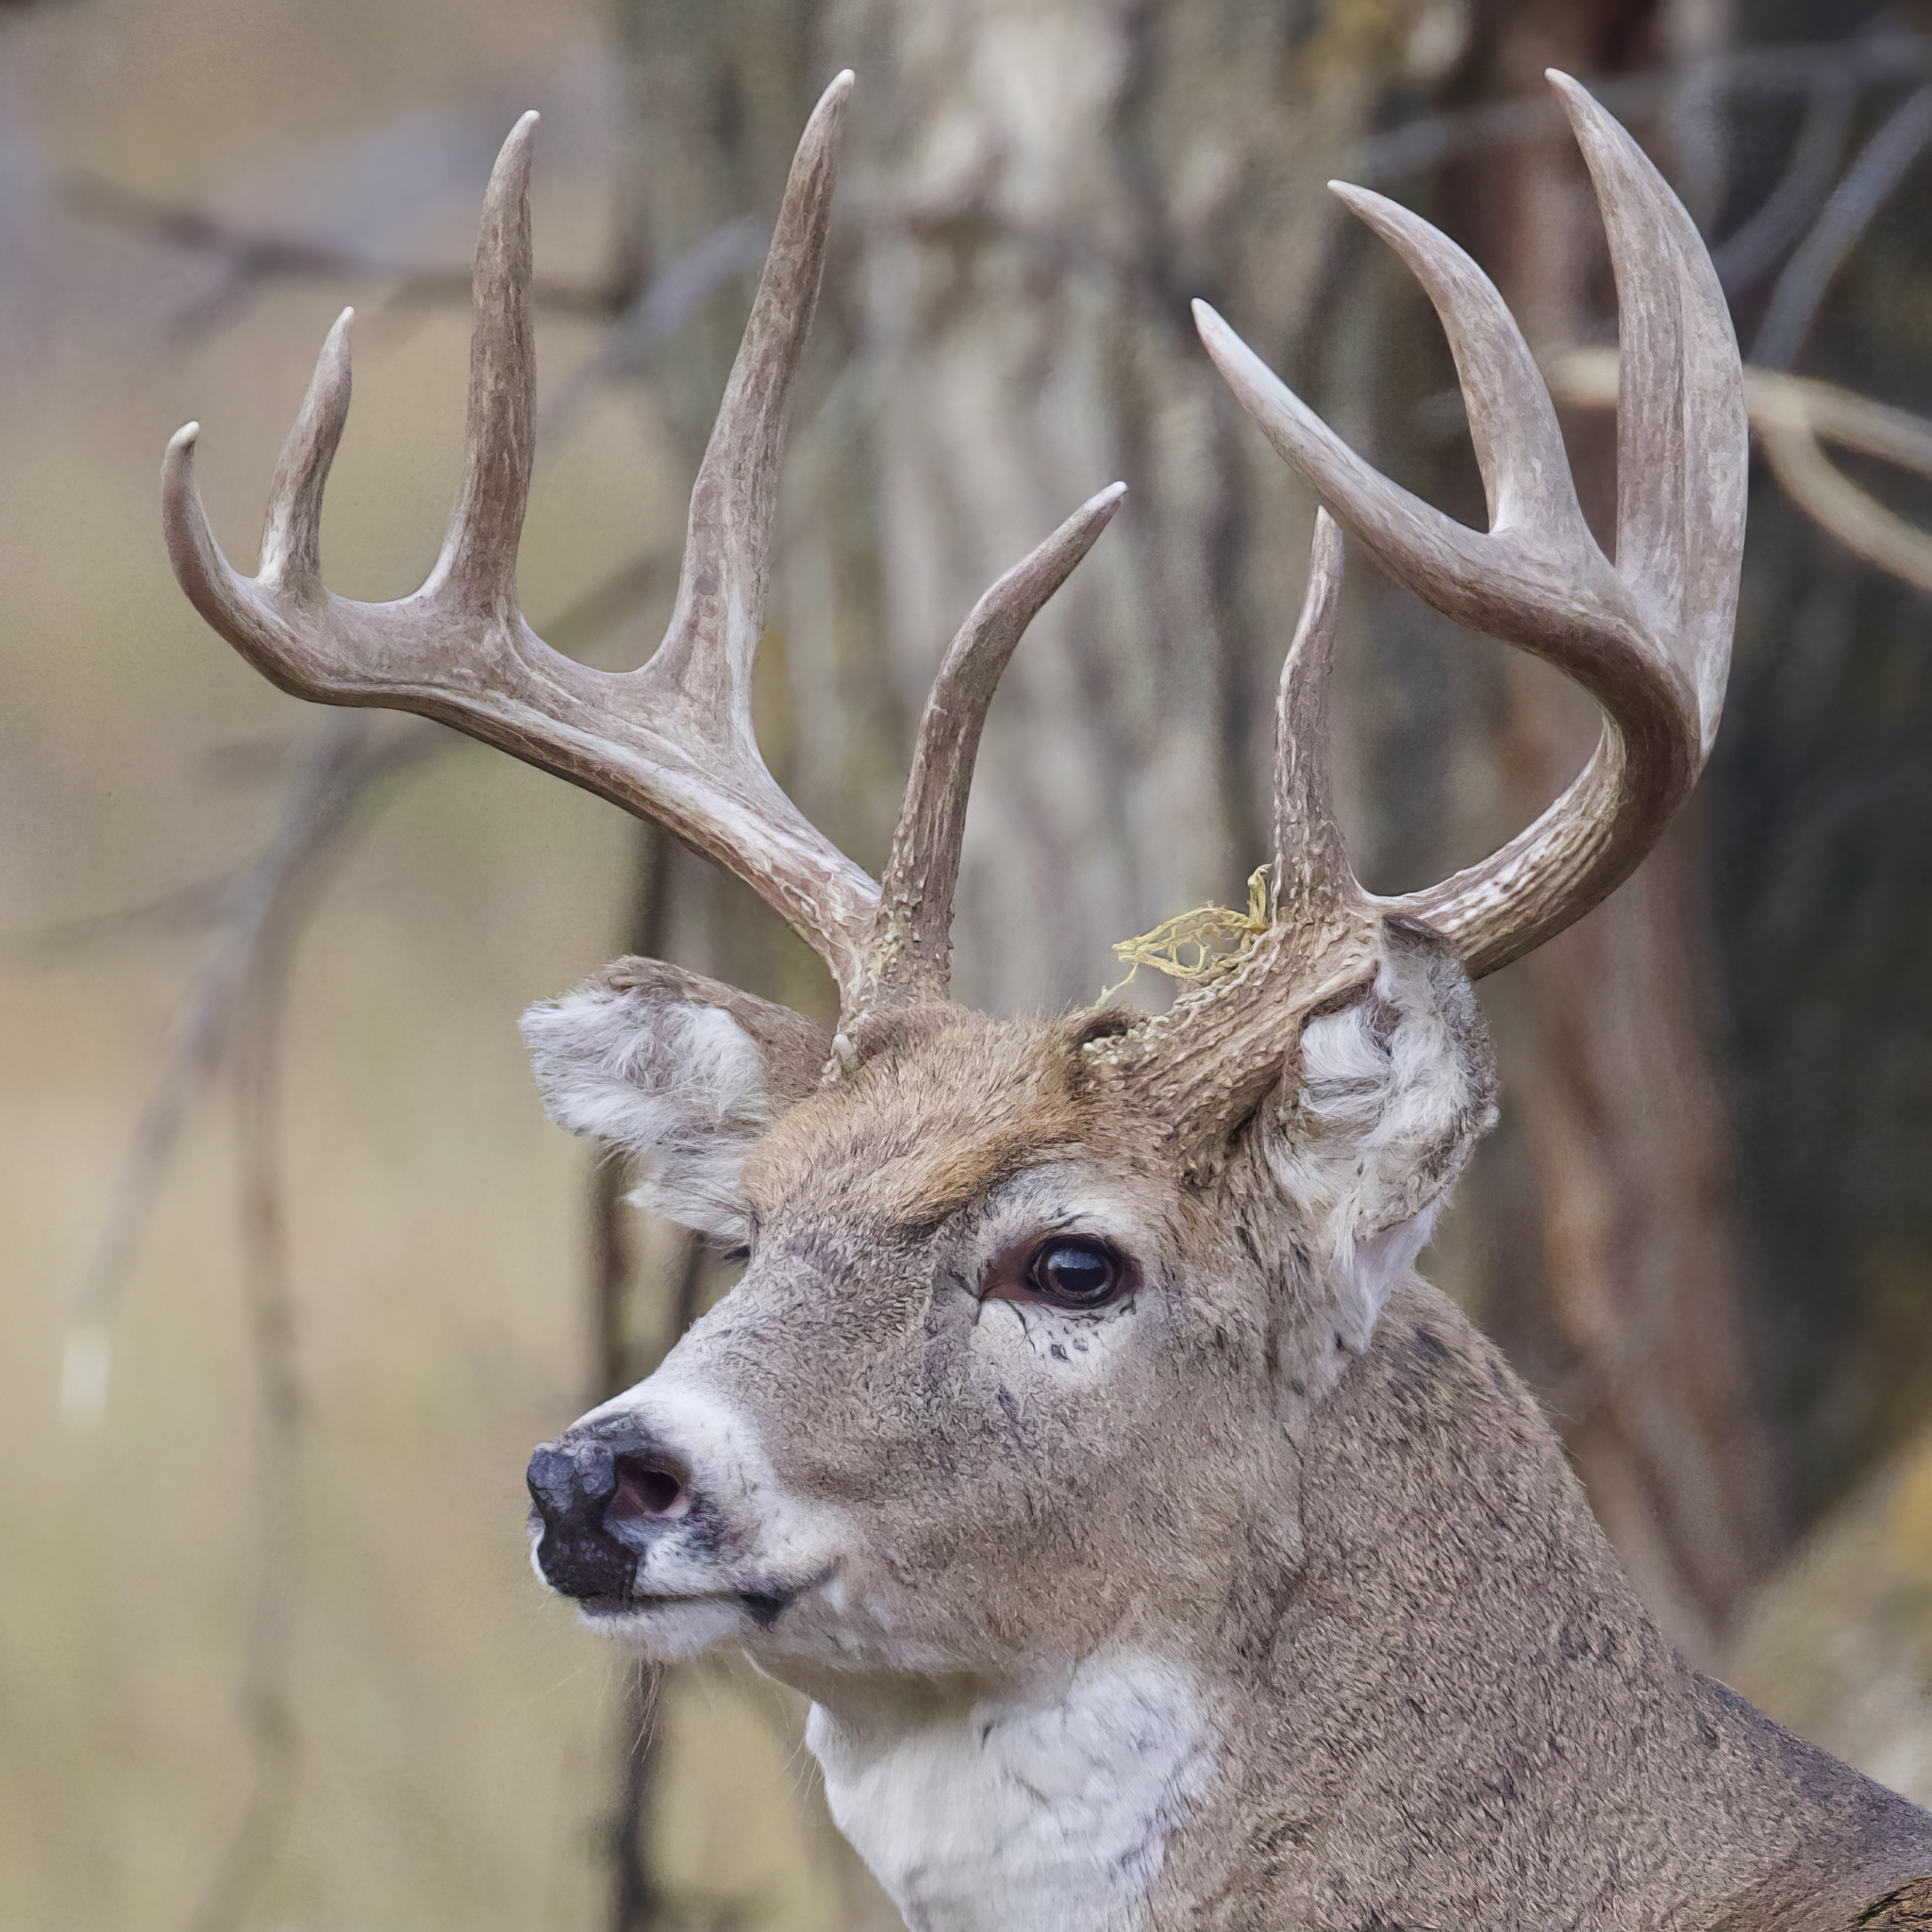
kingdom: Animalia
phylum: Chordata
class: Mammalia
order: Artiodactyla
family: Cervidae
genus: Odocoileus
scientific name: Odocoileus virginianus
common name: White-tailed deer
